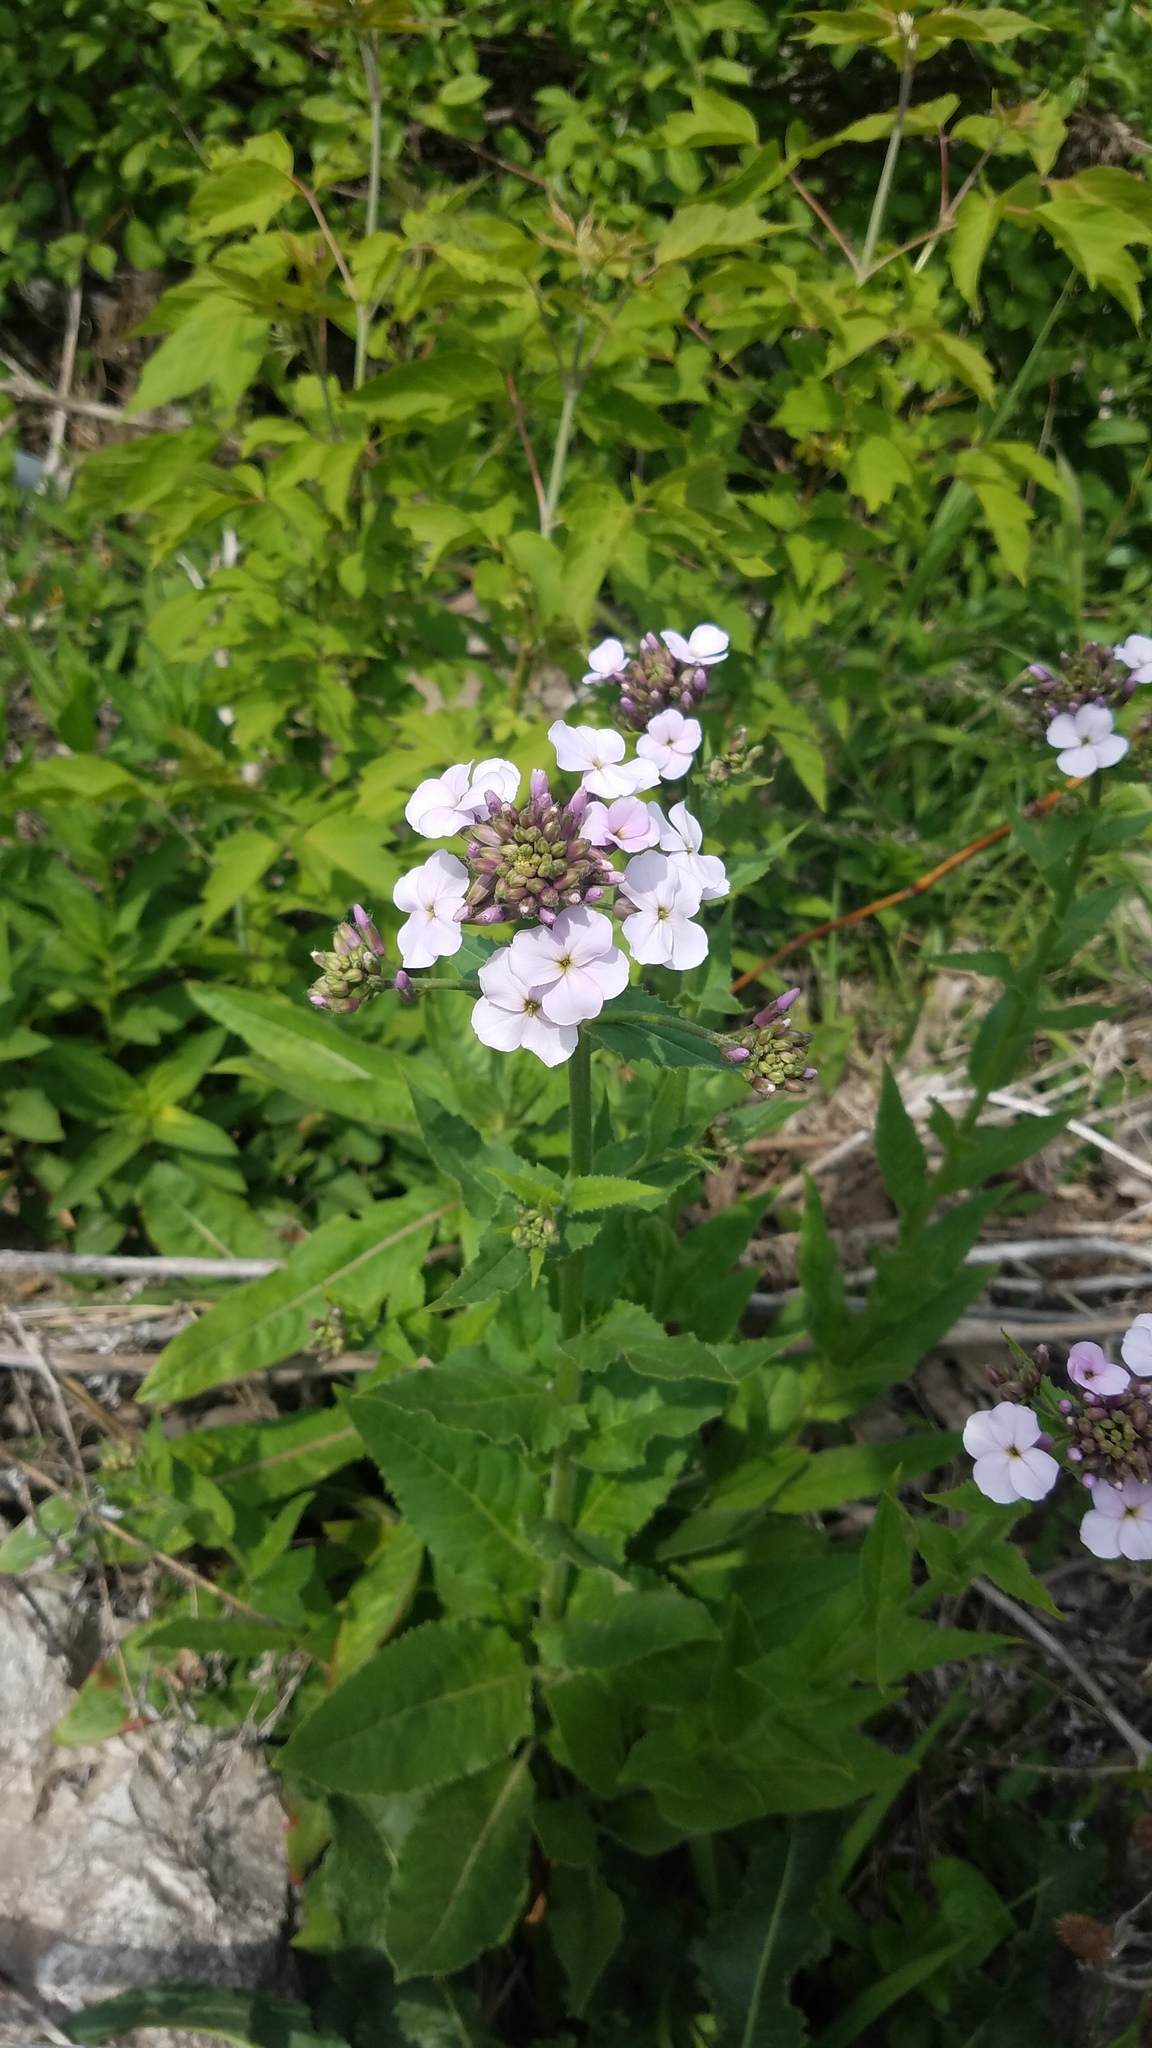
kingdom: Plantae
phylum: Tracheophyta
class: Magnoliopsida
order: Brassicales
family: Brassicaceae
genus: Hesperis
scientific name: Hesperis matronalis
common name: Dame's-violet
